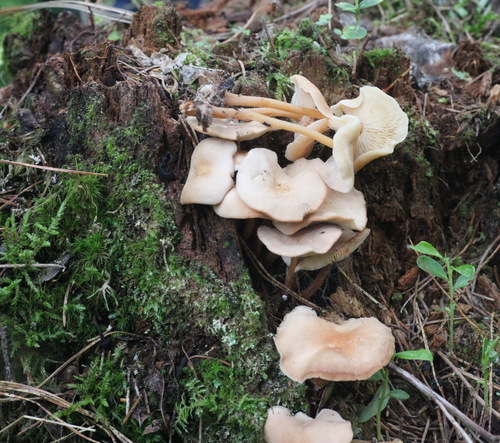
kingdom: Fungi
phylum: Basidiomycota
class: Agaricomycetes
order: Agaricales
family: Omphalotaceae
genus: Gymnopus
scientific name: Gymnopus dryophilus
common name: Penny top
